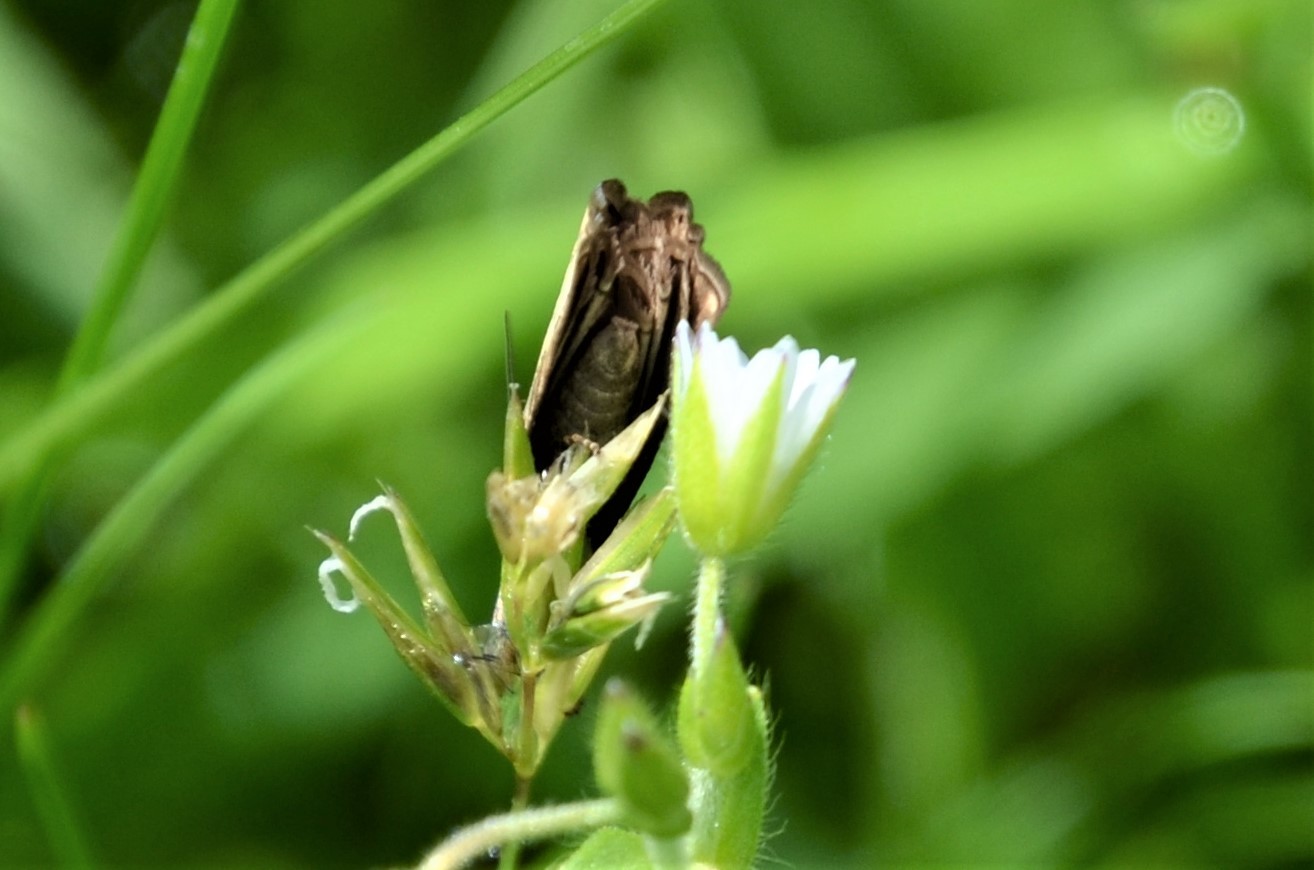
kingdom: Animalia
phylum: Arthropoda
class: Insecta
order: Lepidoptera
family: Crambidae
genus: Chrysoteuchia
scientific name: Chrysoteuchia culmella
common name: Garden grass-veneer
